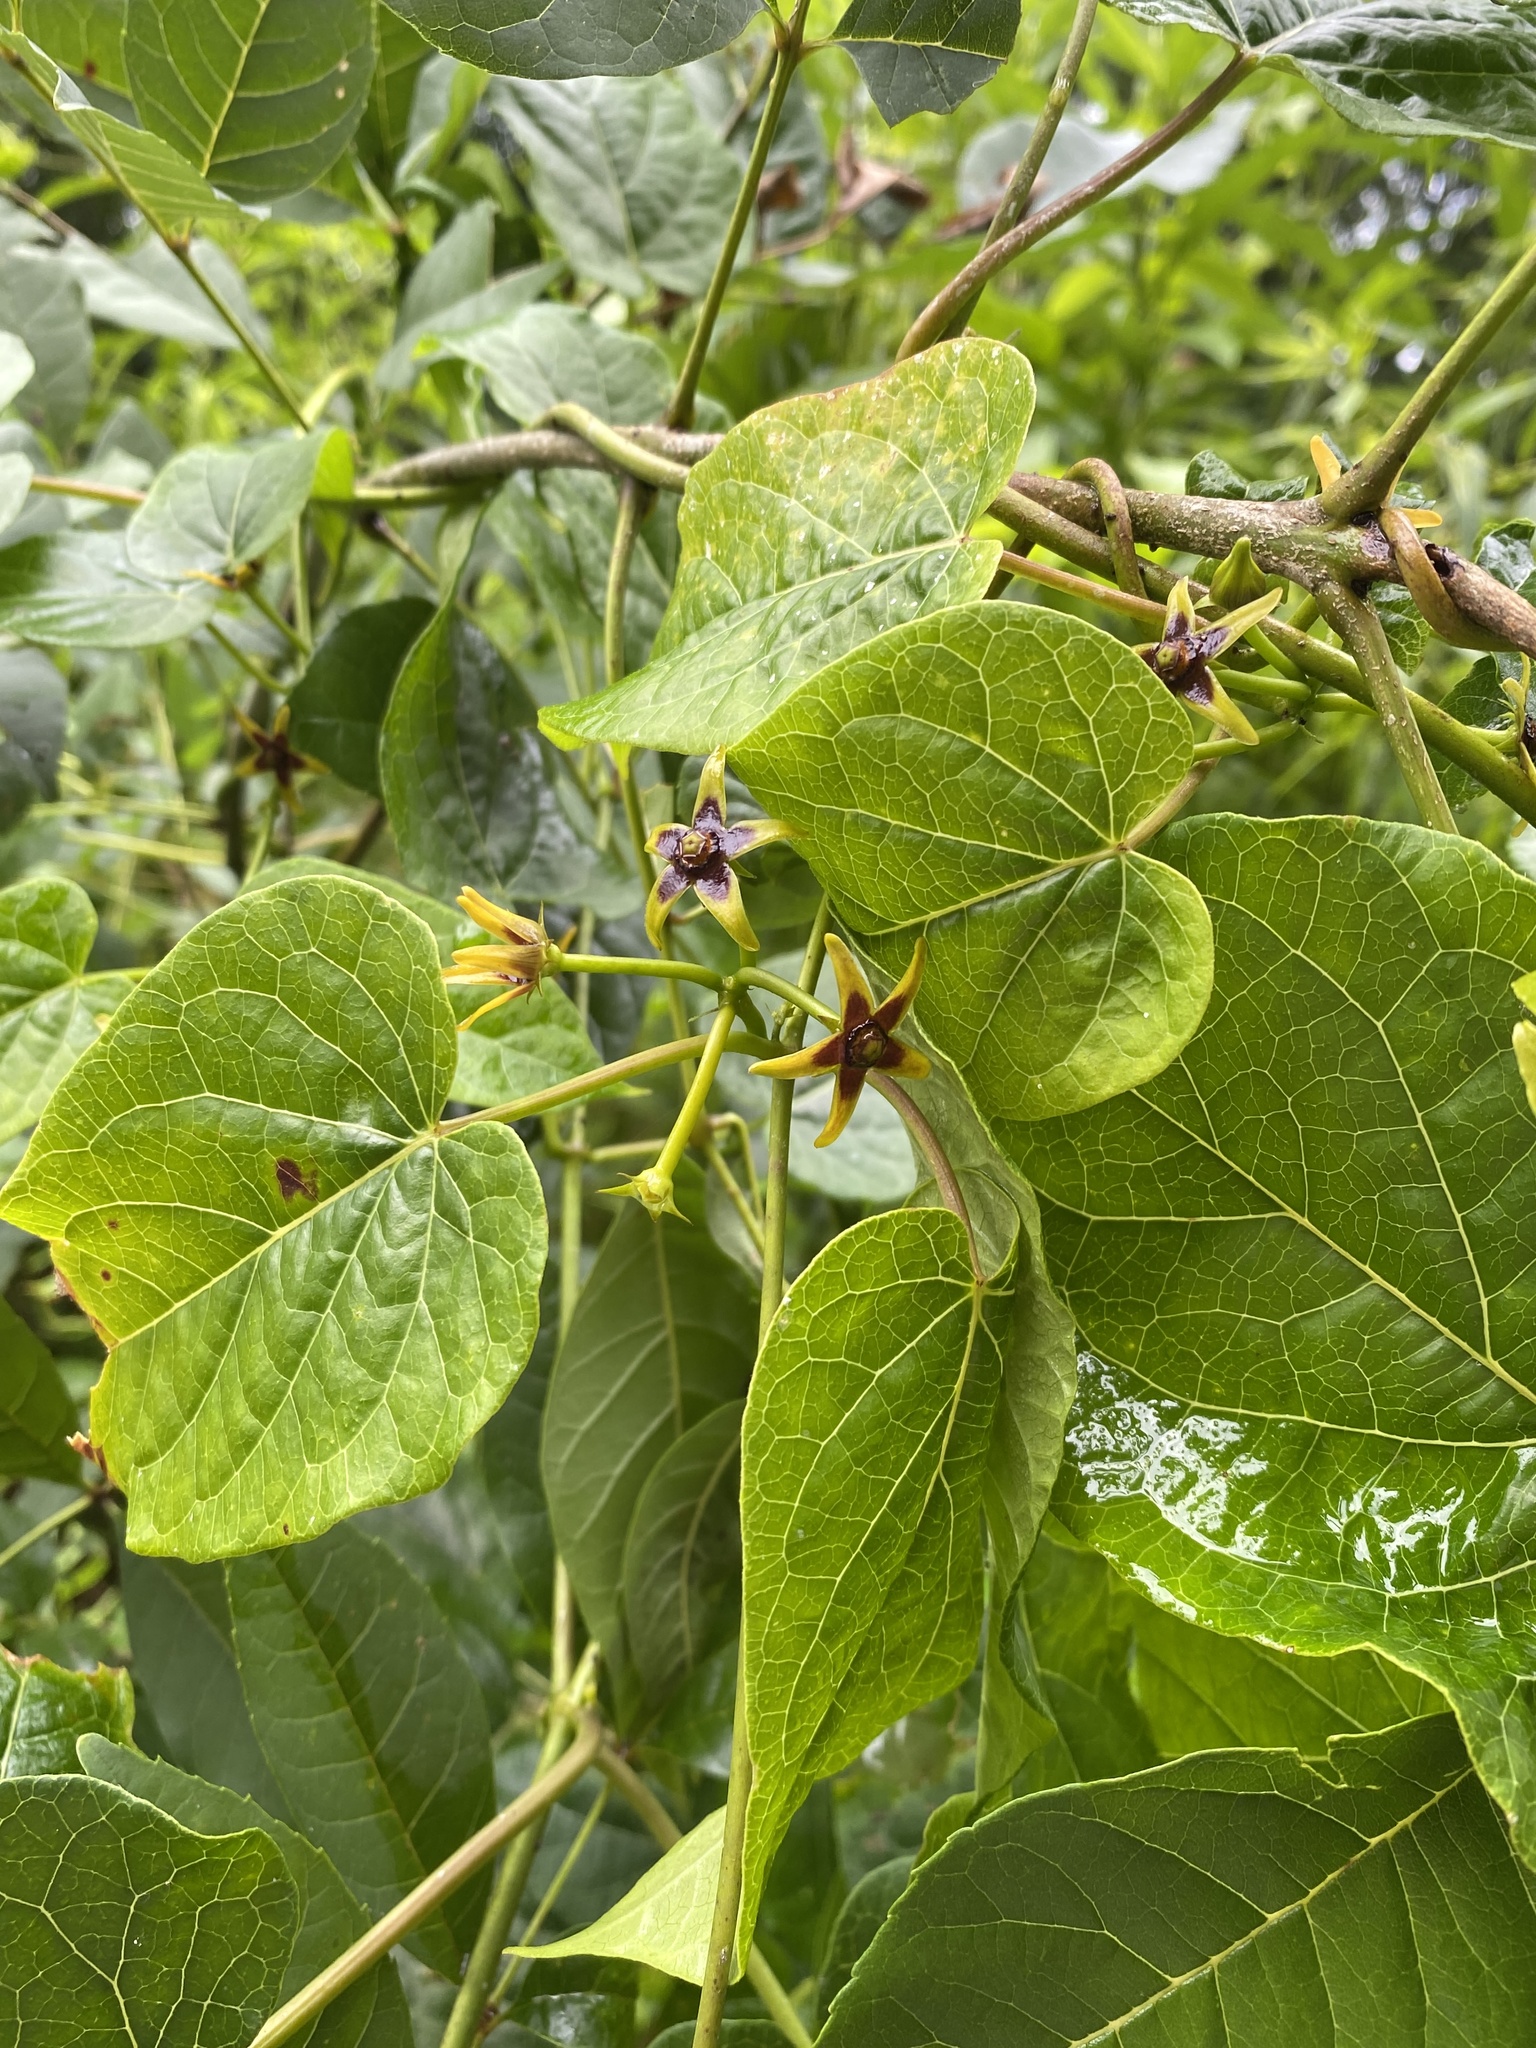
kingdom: Plantae
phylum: Tracheophyta
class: Magnoliopsida
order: Gentianales
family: Apocynaceae
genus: Gonolobus
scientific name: Gonolobus suberosus
